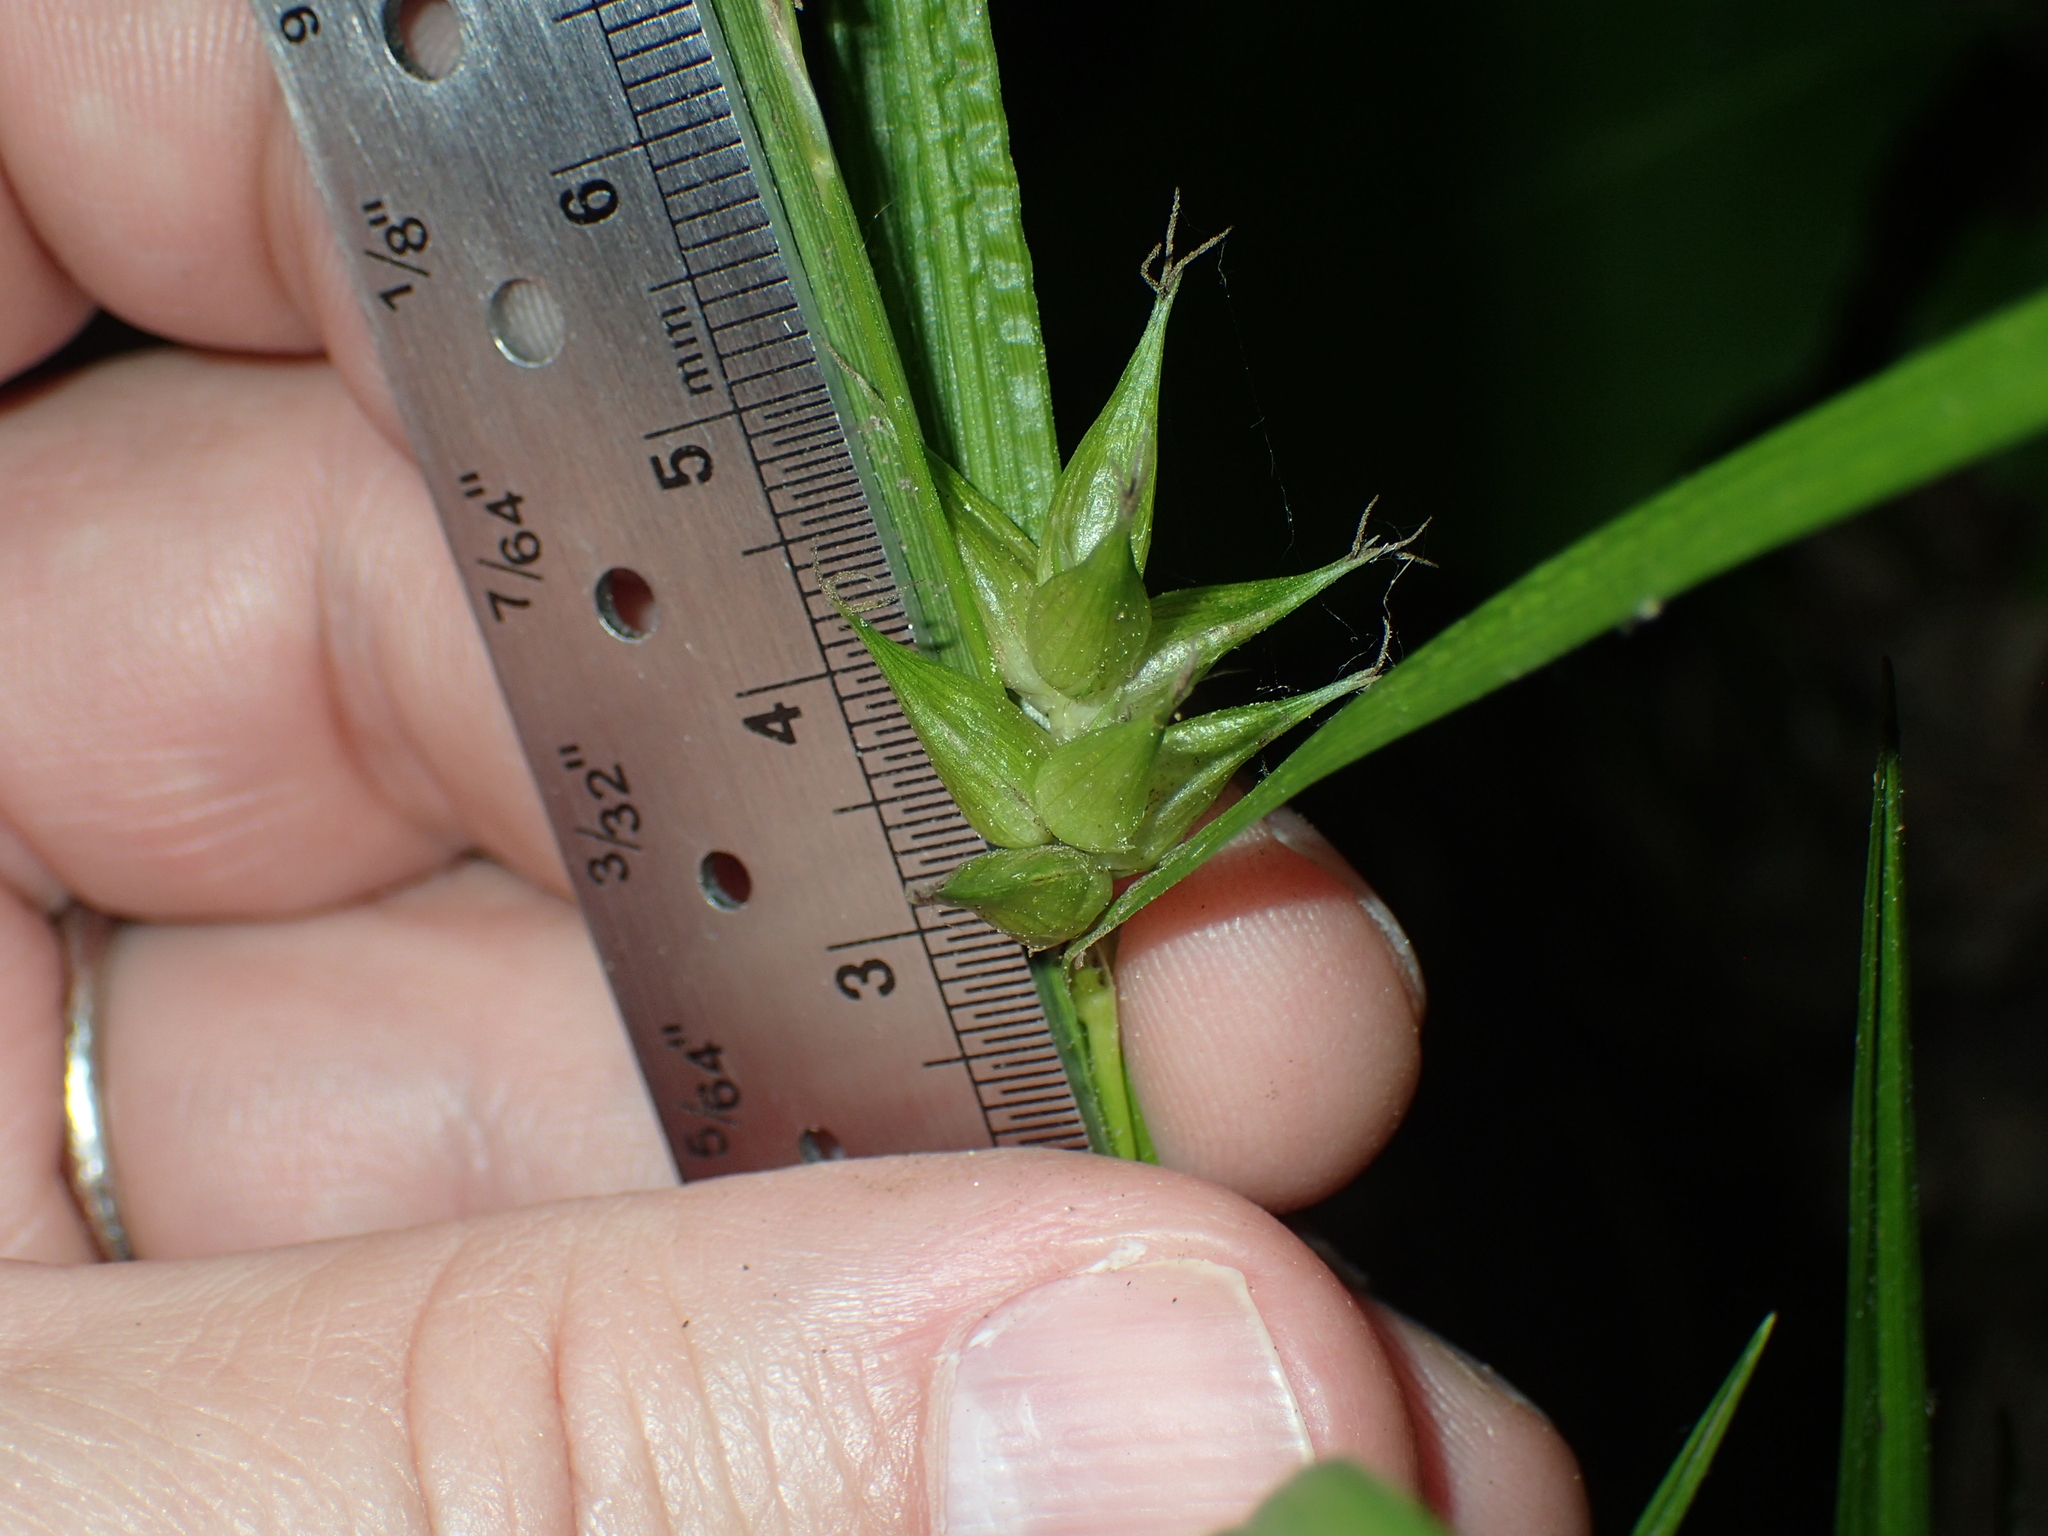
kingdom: Plantae
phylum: Tracheophyta
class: Liliopsida
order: Poales
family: Cyperaceae
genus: Carex
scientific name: Carex intumescens
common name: Greater bladder sedge
